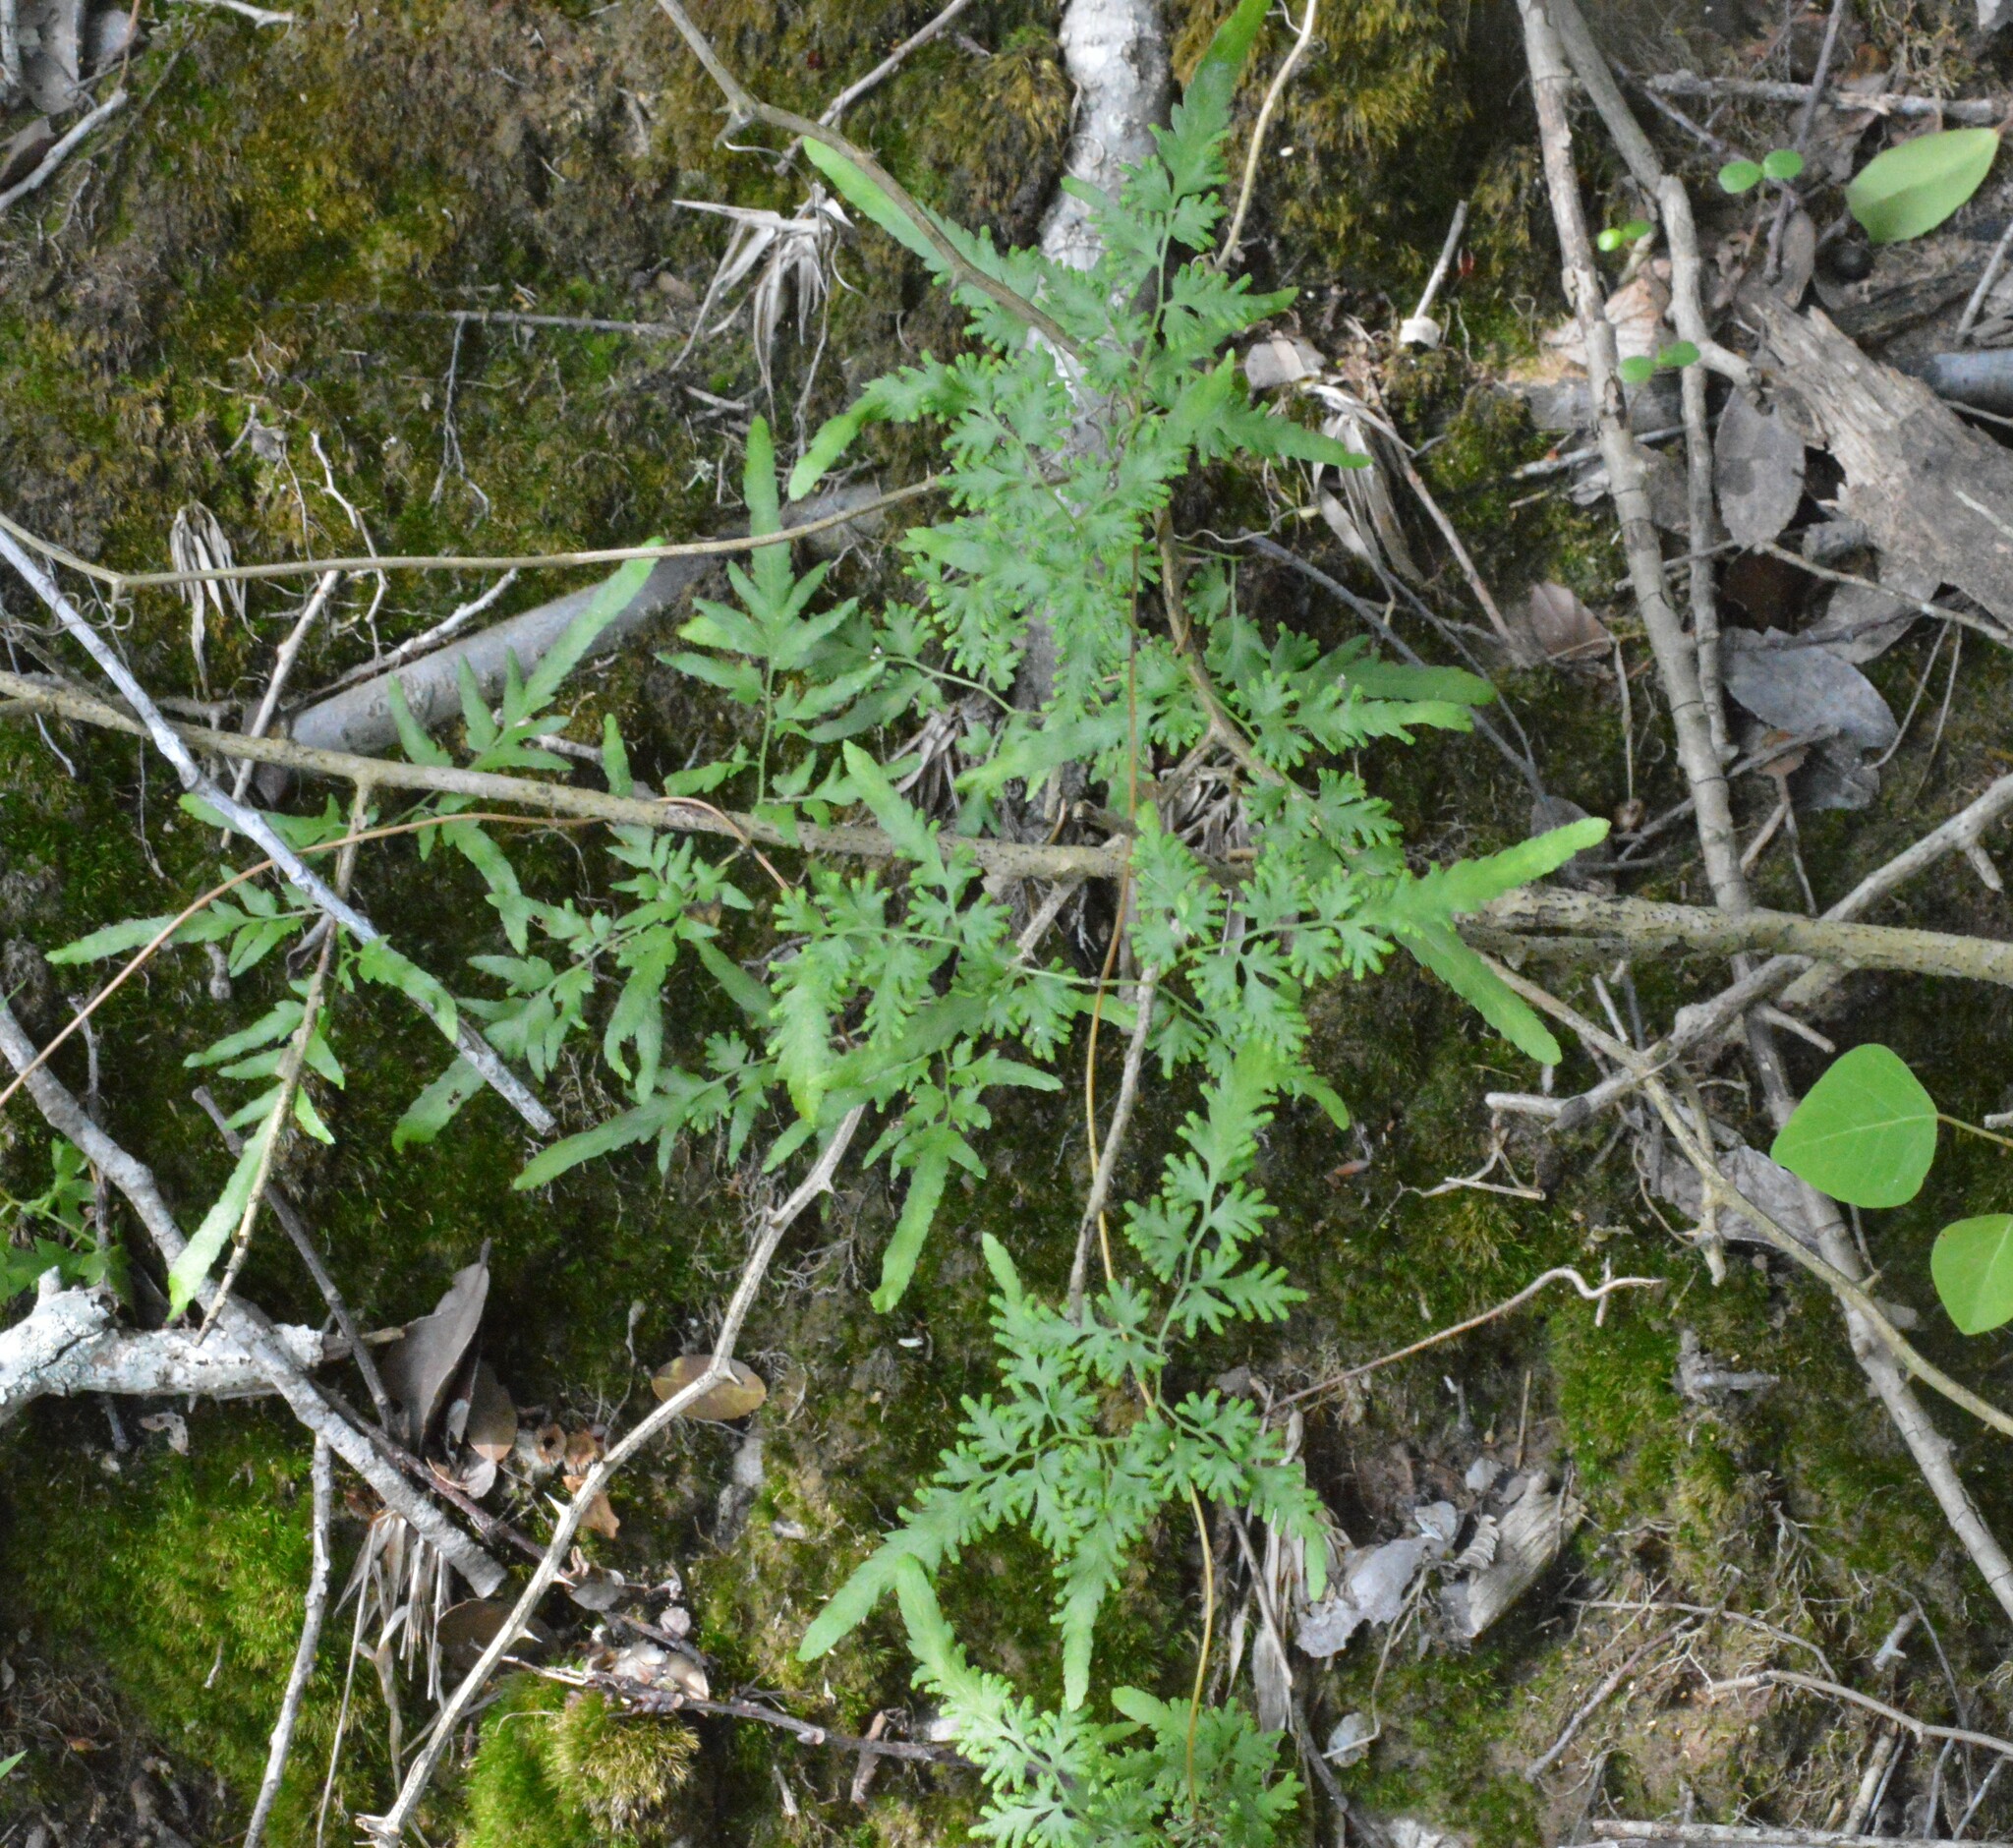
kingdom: Plantae
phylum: Tracheophyta
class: Polypodiopsida
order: Schizaeales
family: Lygodiaceae
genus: Lygodium
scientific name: Lygodium japonicum
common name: Japanese climbing fern
